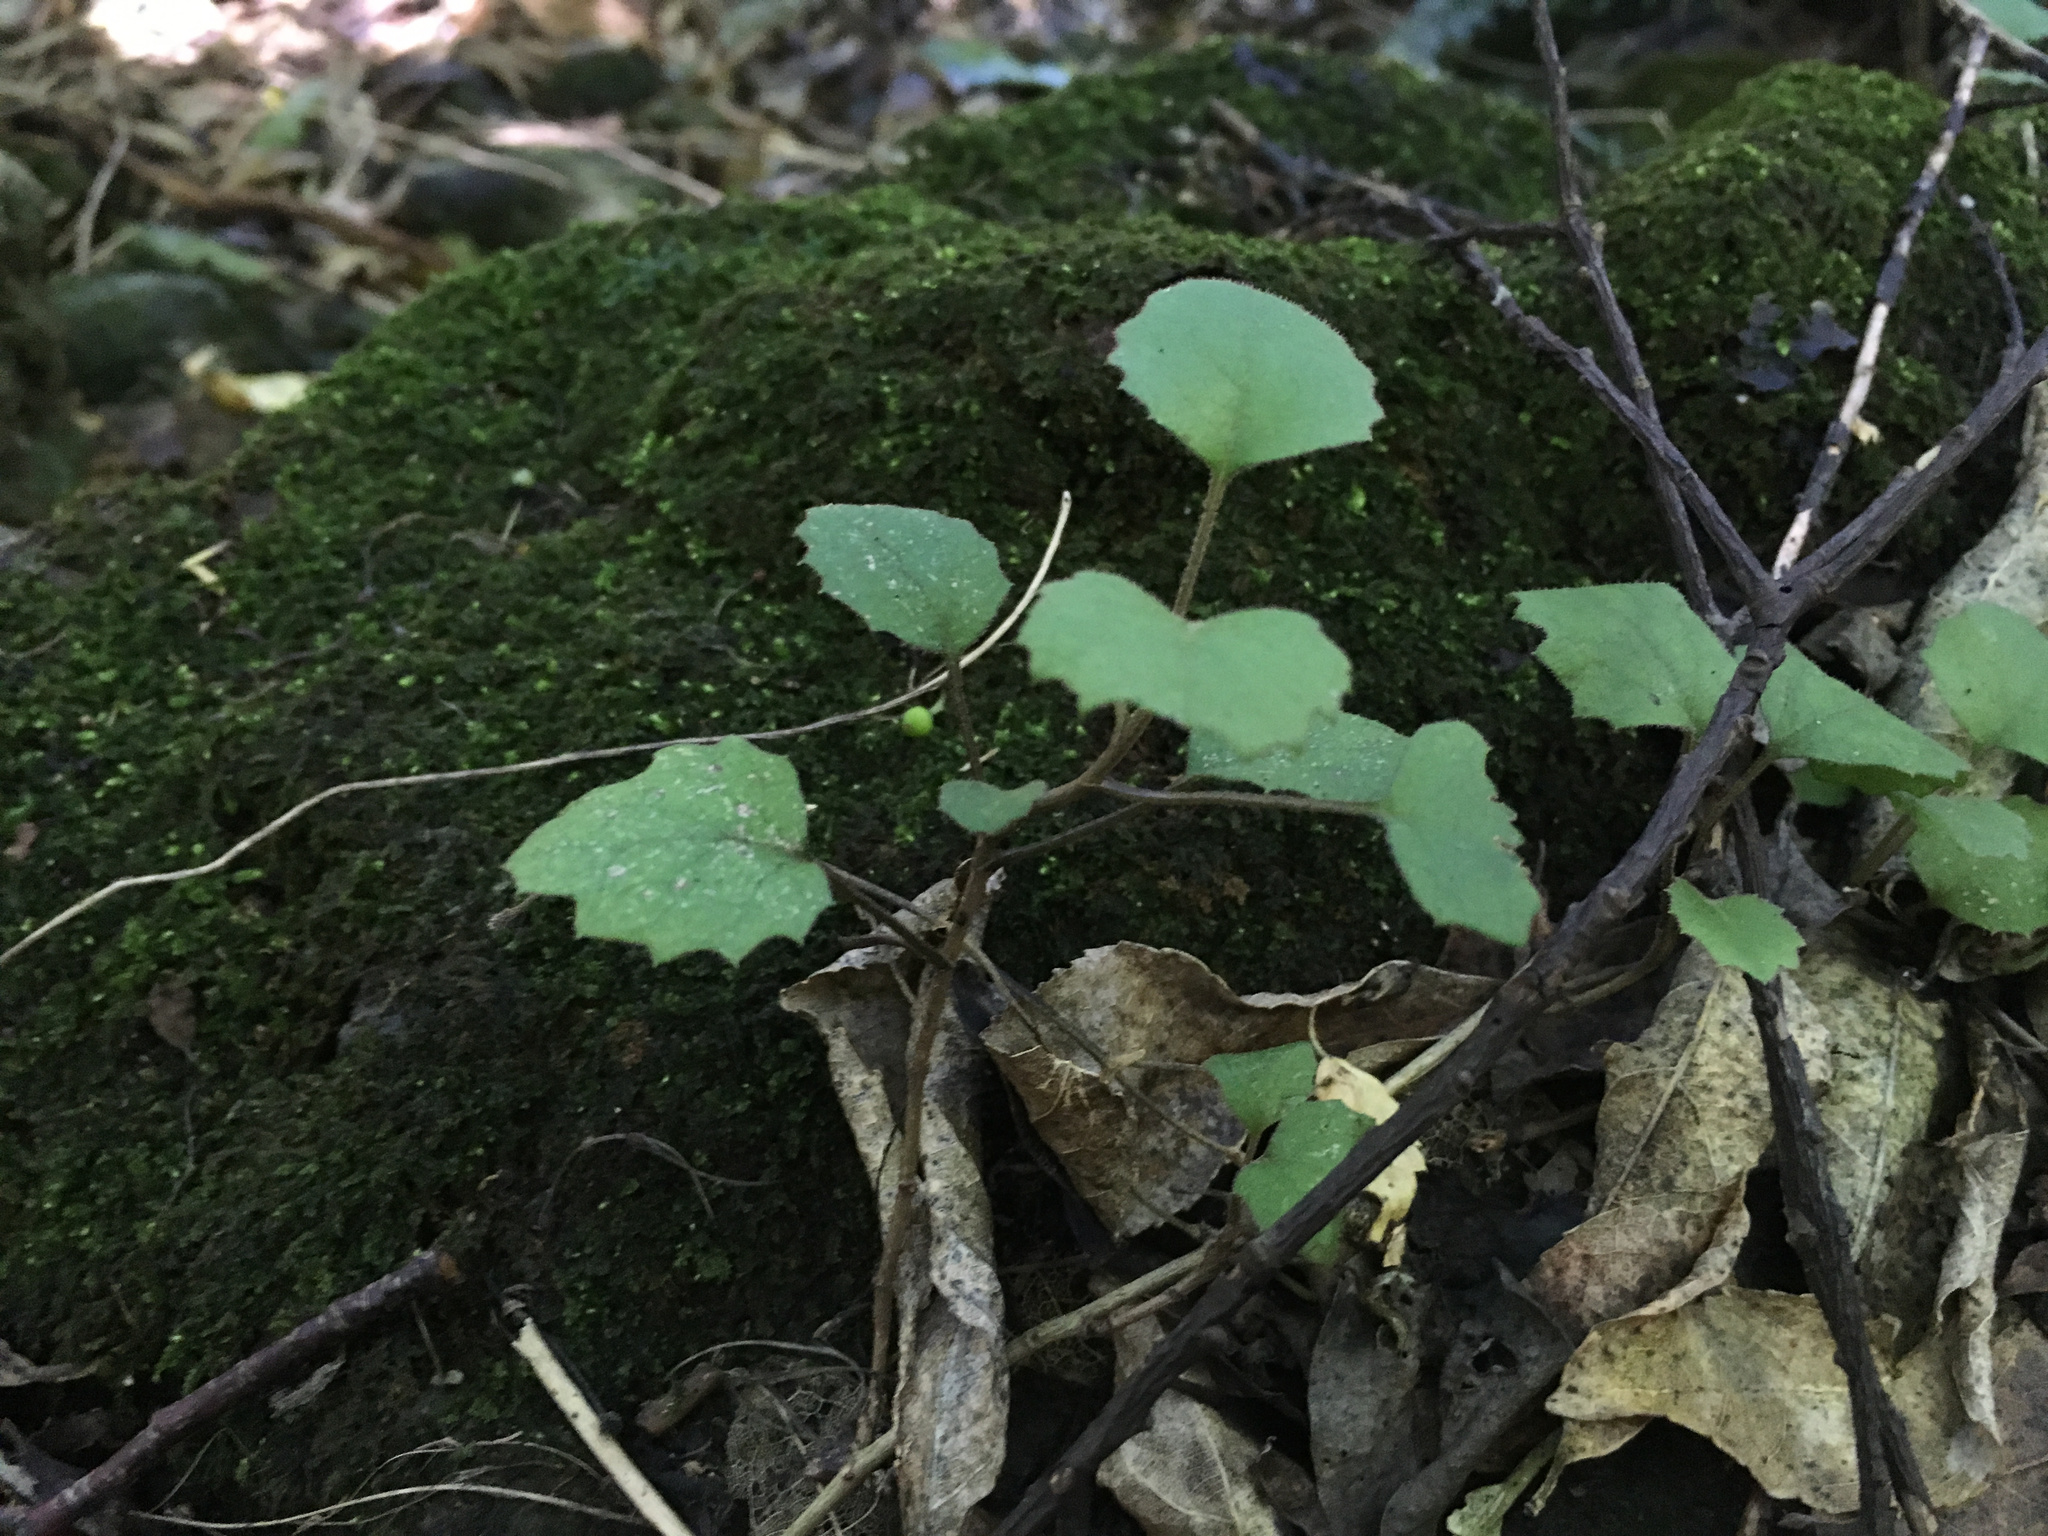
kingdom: Plantae
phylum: Tracheophyta
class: Magnoliopsida
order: Asterales
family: Asteraceae
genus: Brachyglottis
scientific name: Brachyglottis sciadophila
